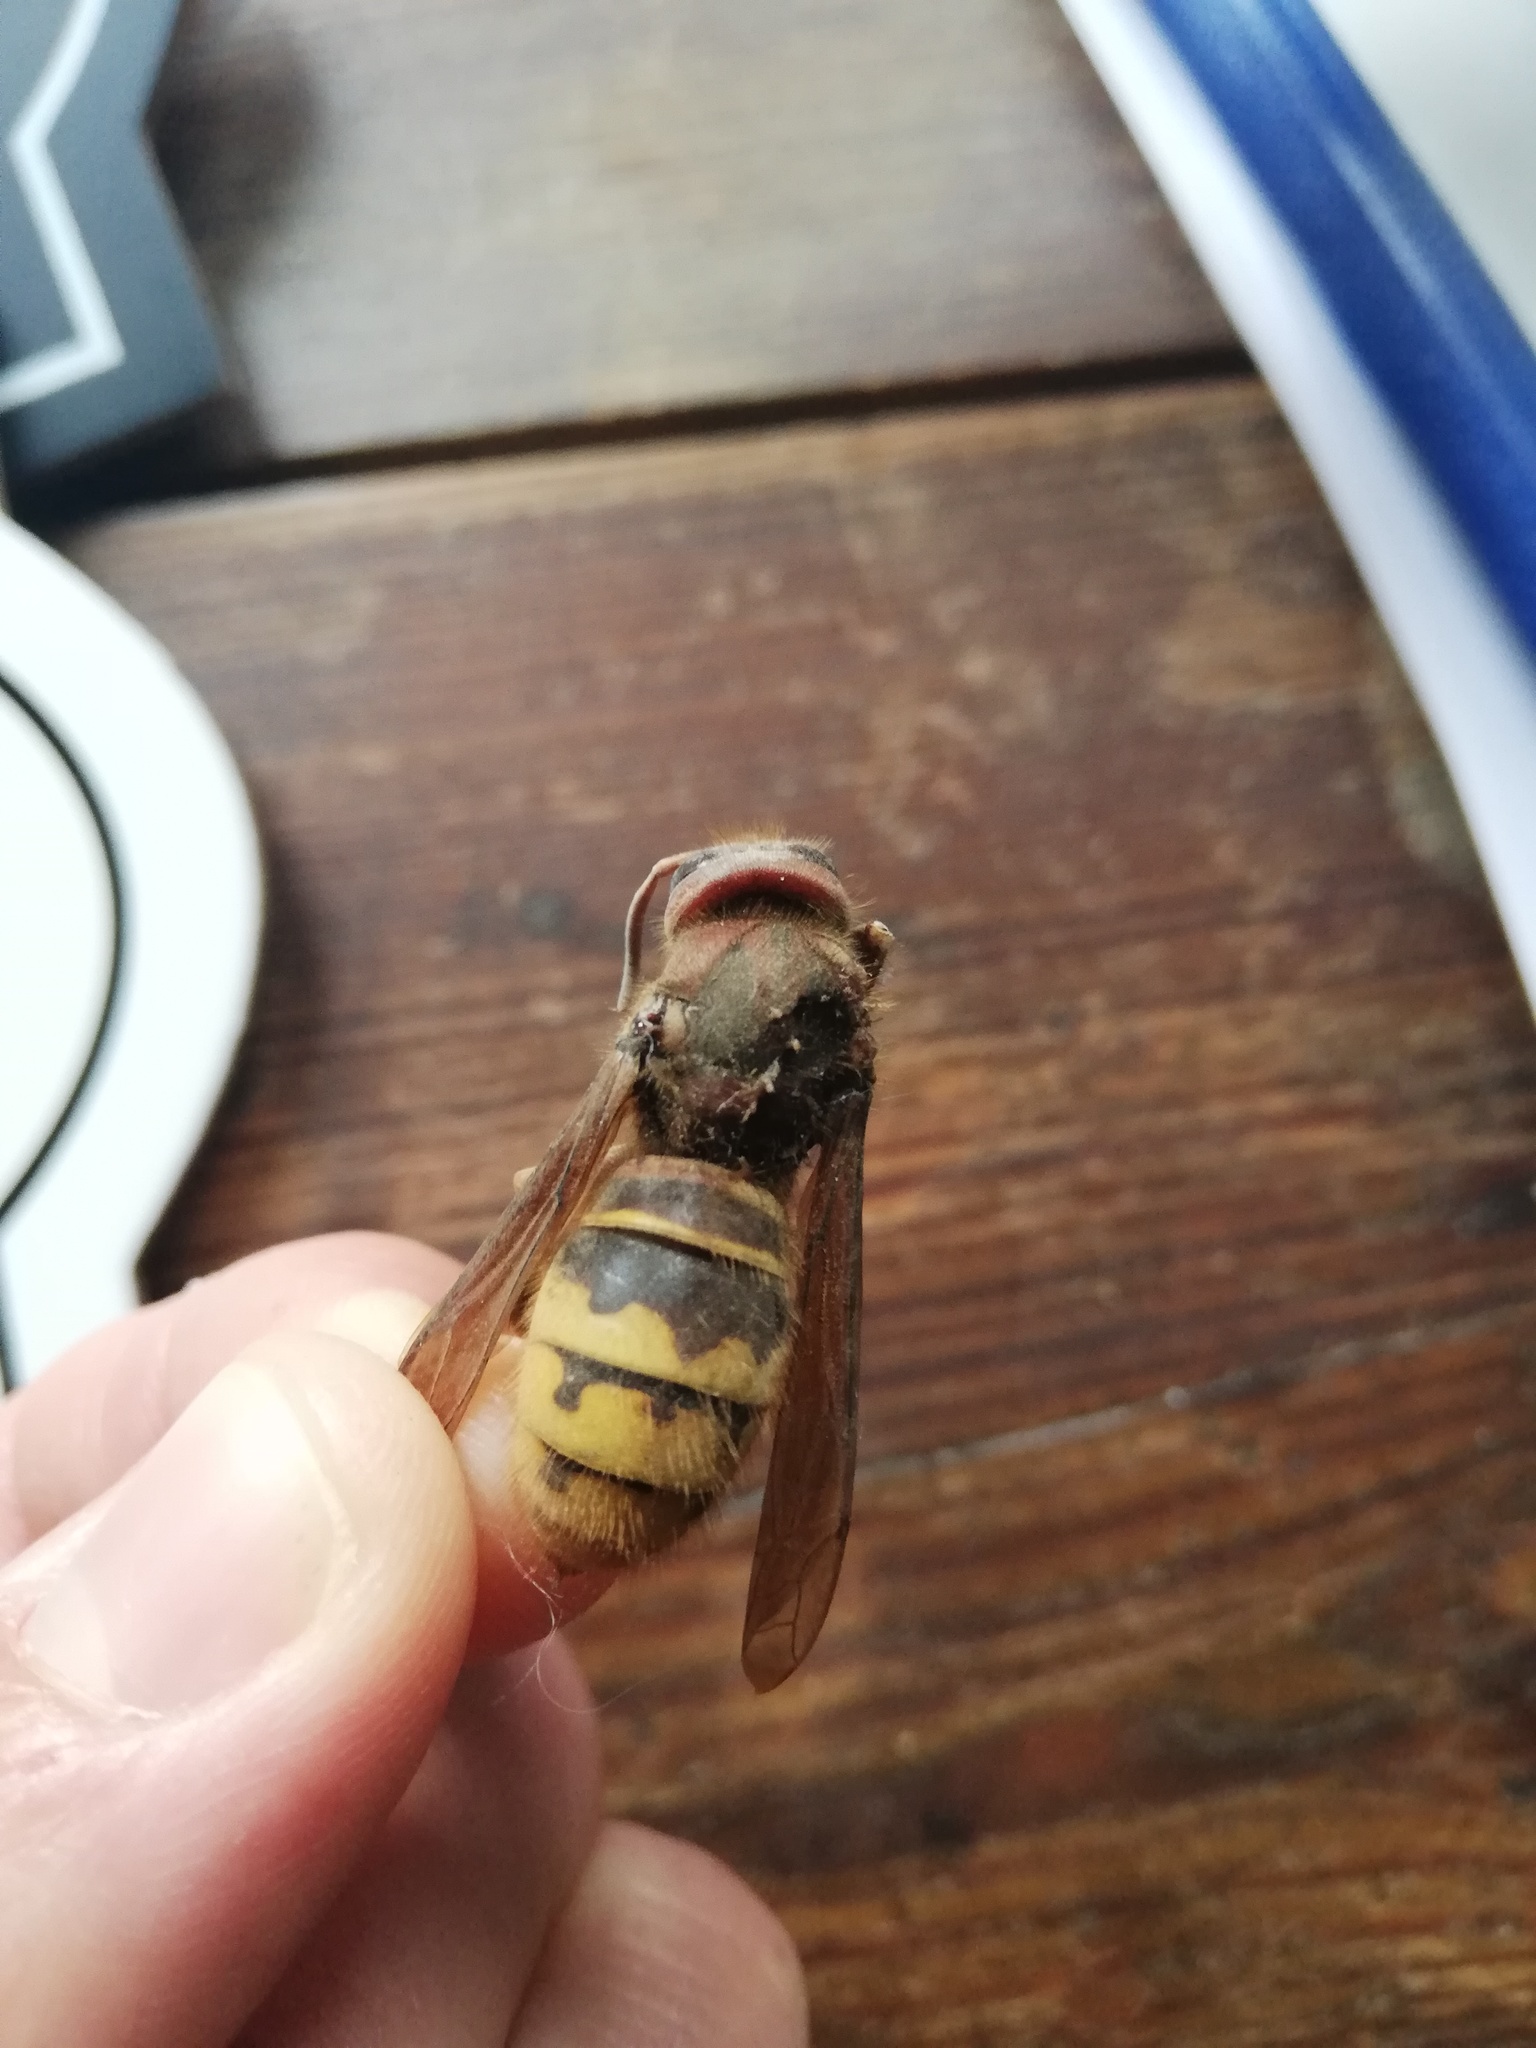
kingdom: Animalia
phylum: Arthropoda
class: Insecta
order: Hymenoptera
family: Vespidae
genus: Vespa
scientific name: Vespa crabro
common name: Hornet
